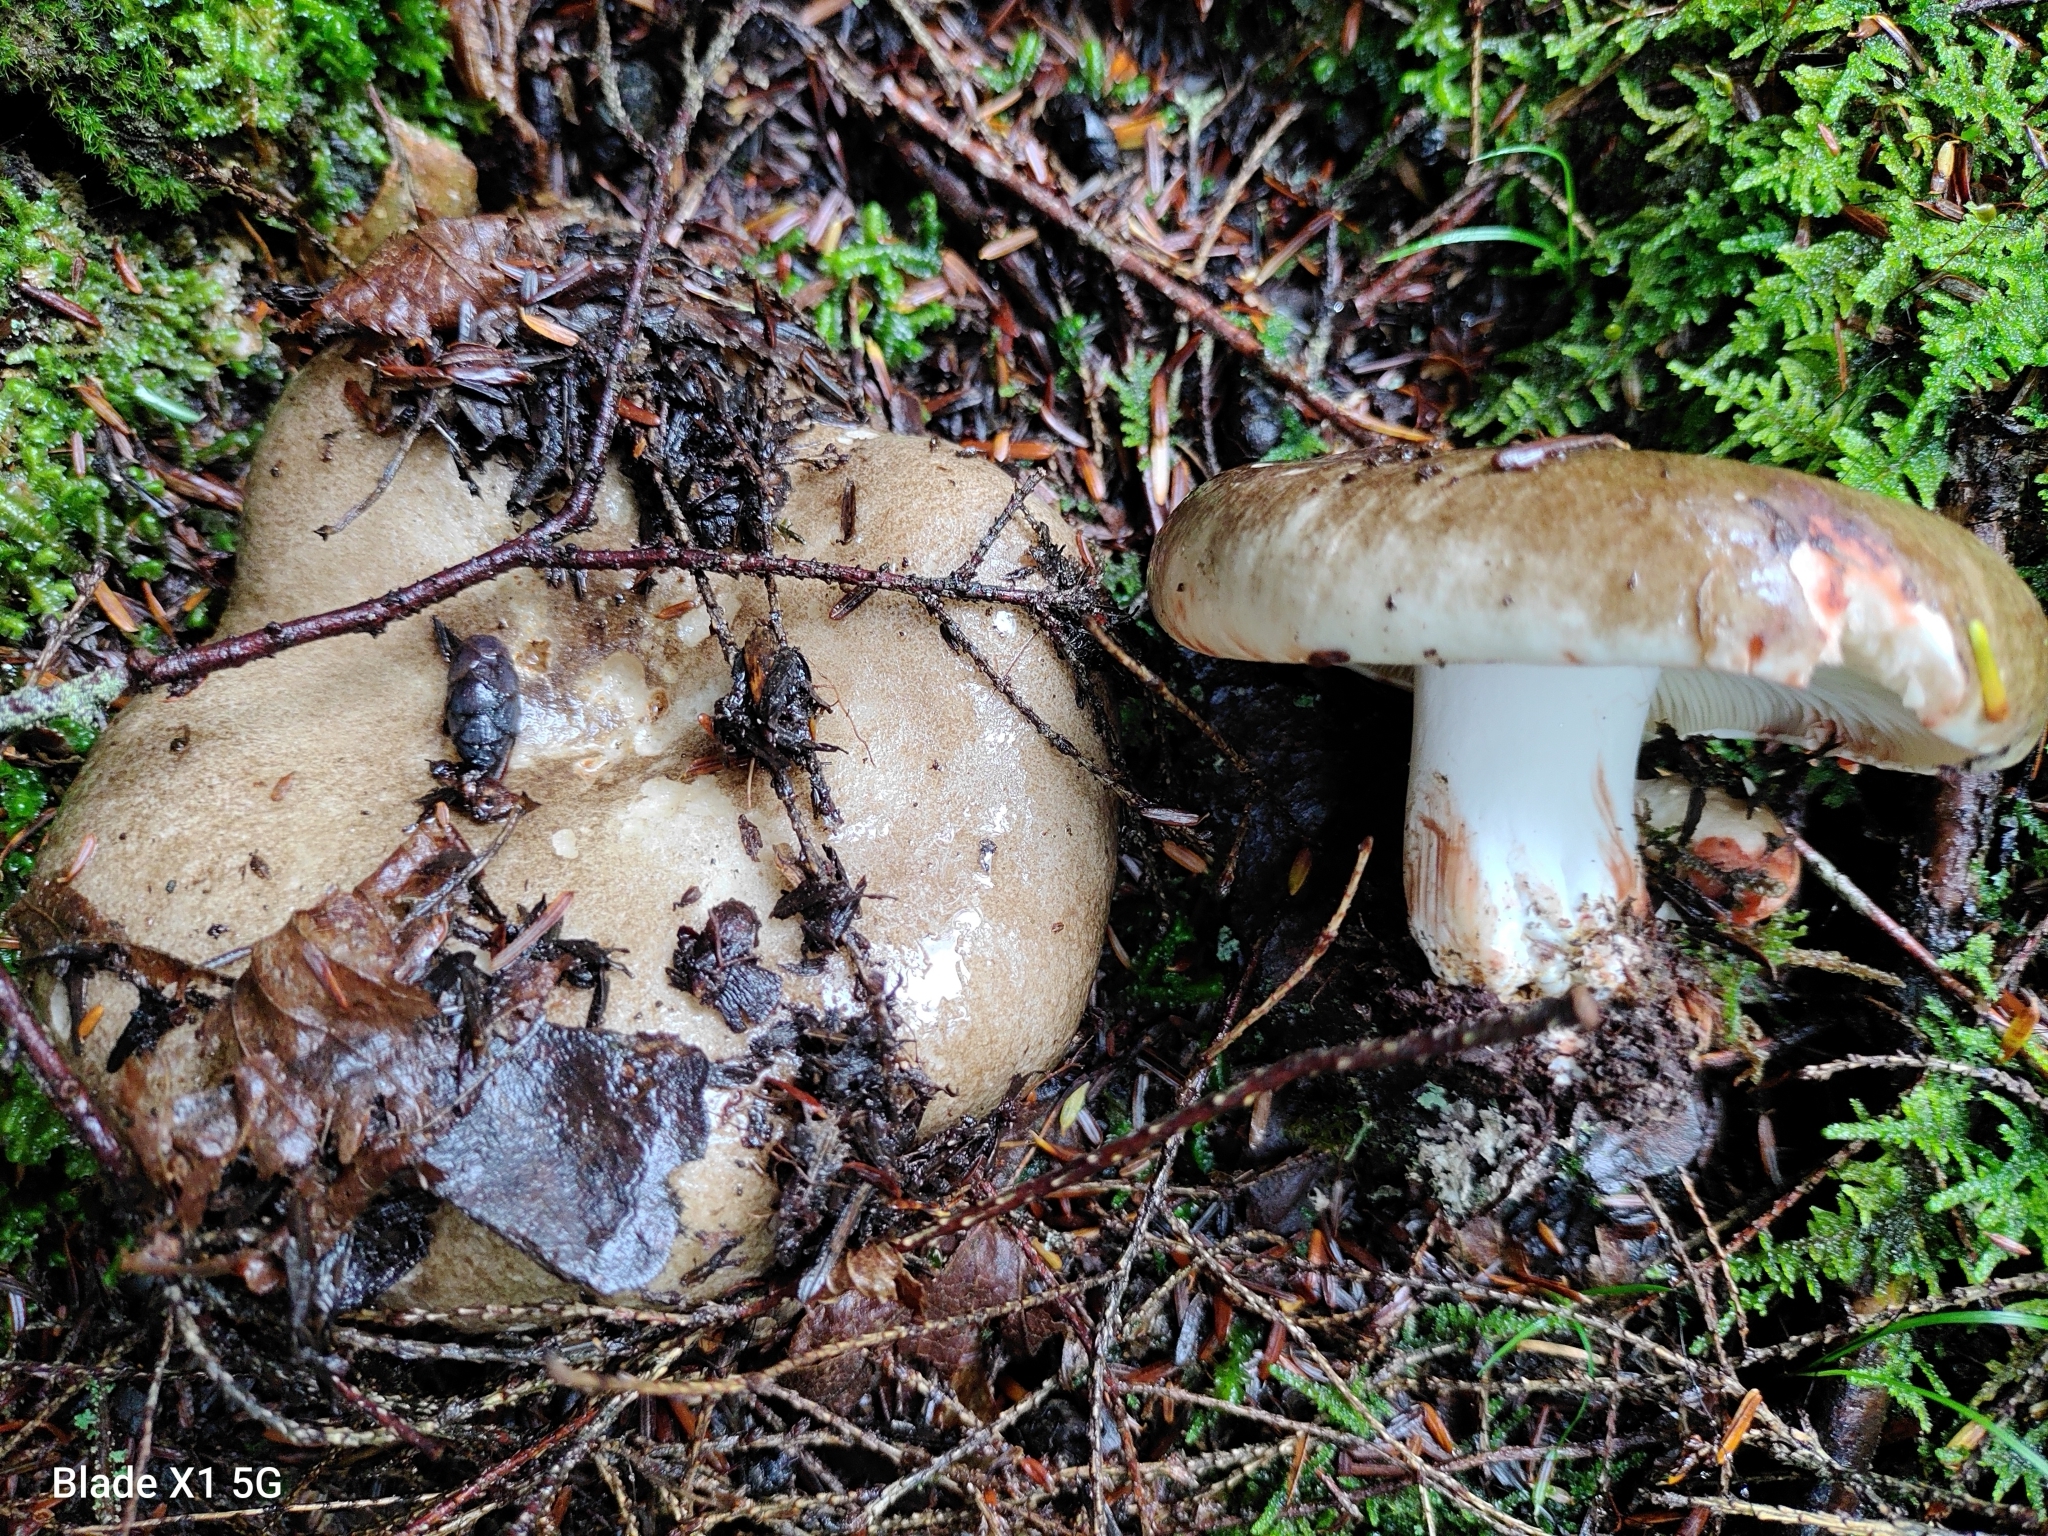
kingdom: Fungi
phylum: Basidiomycota
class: Agaricomycetes
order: Russulales
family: Russulaceae
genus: Russula
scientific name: Russula densifolia
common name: Crowded brittlegill
